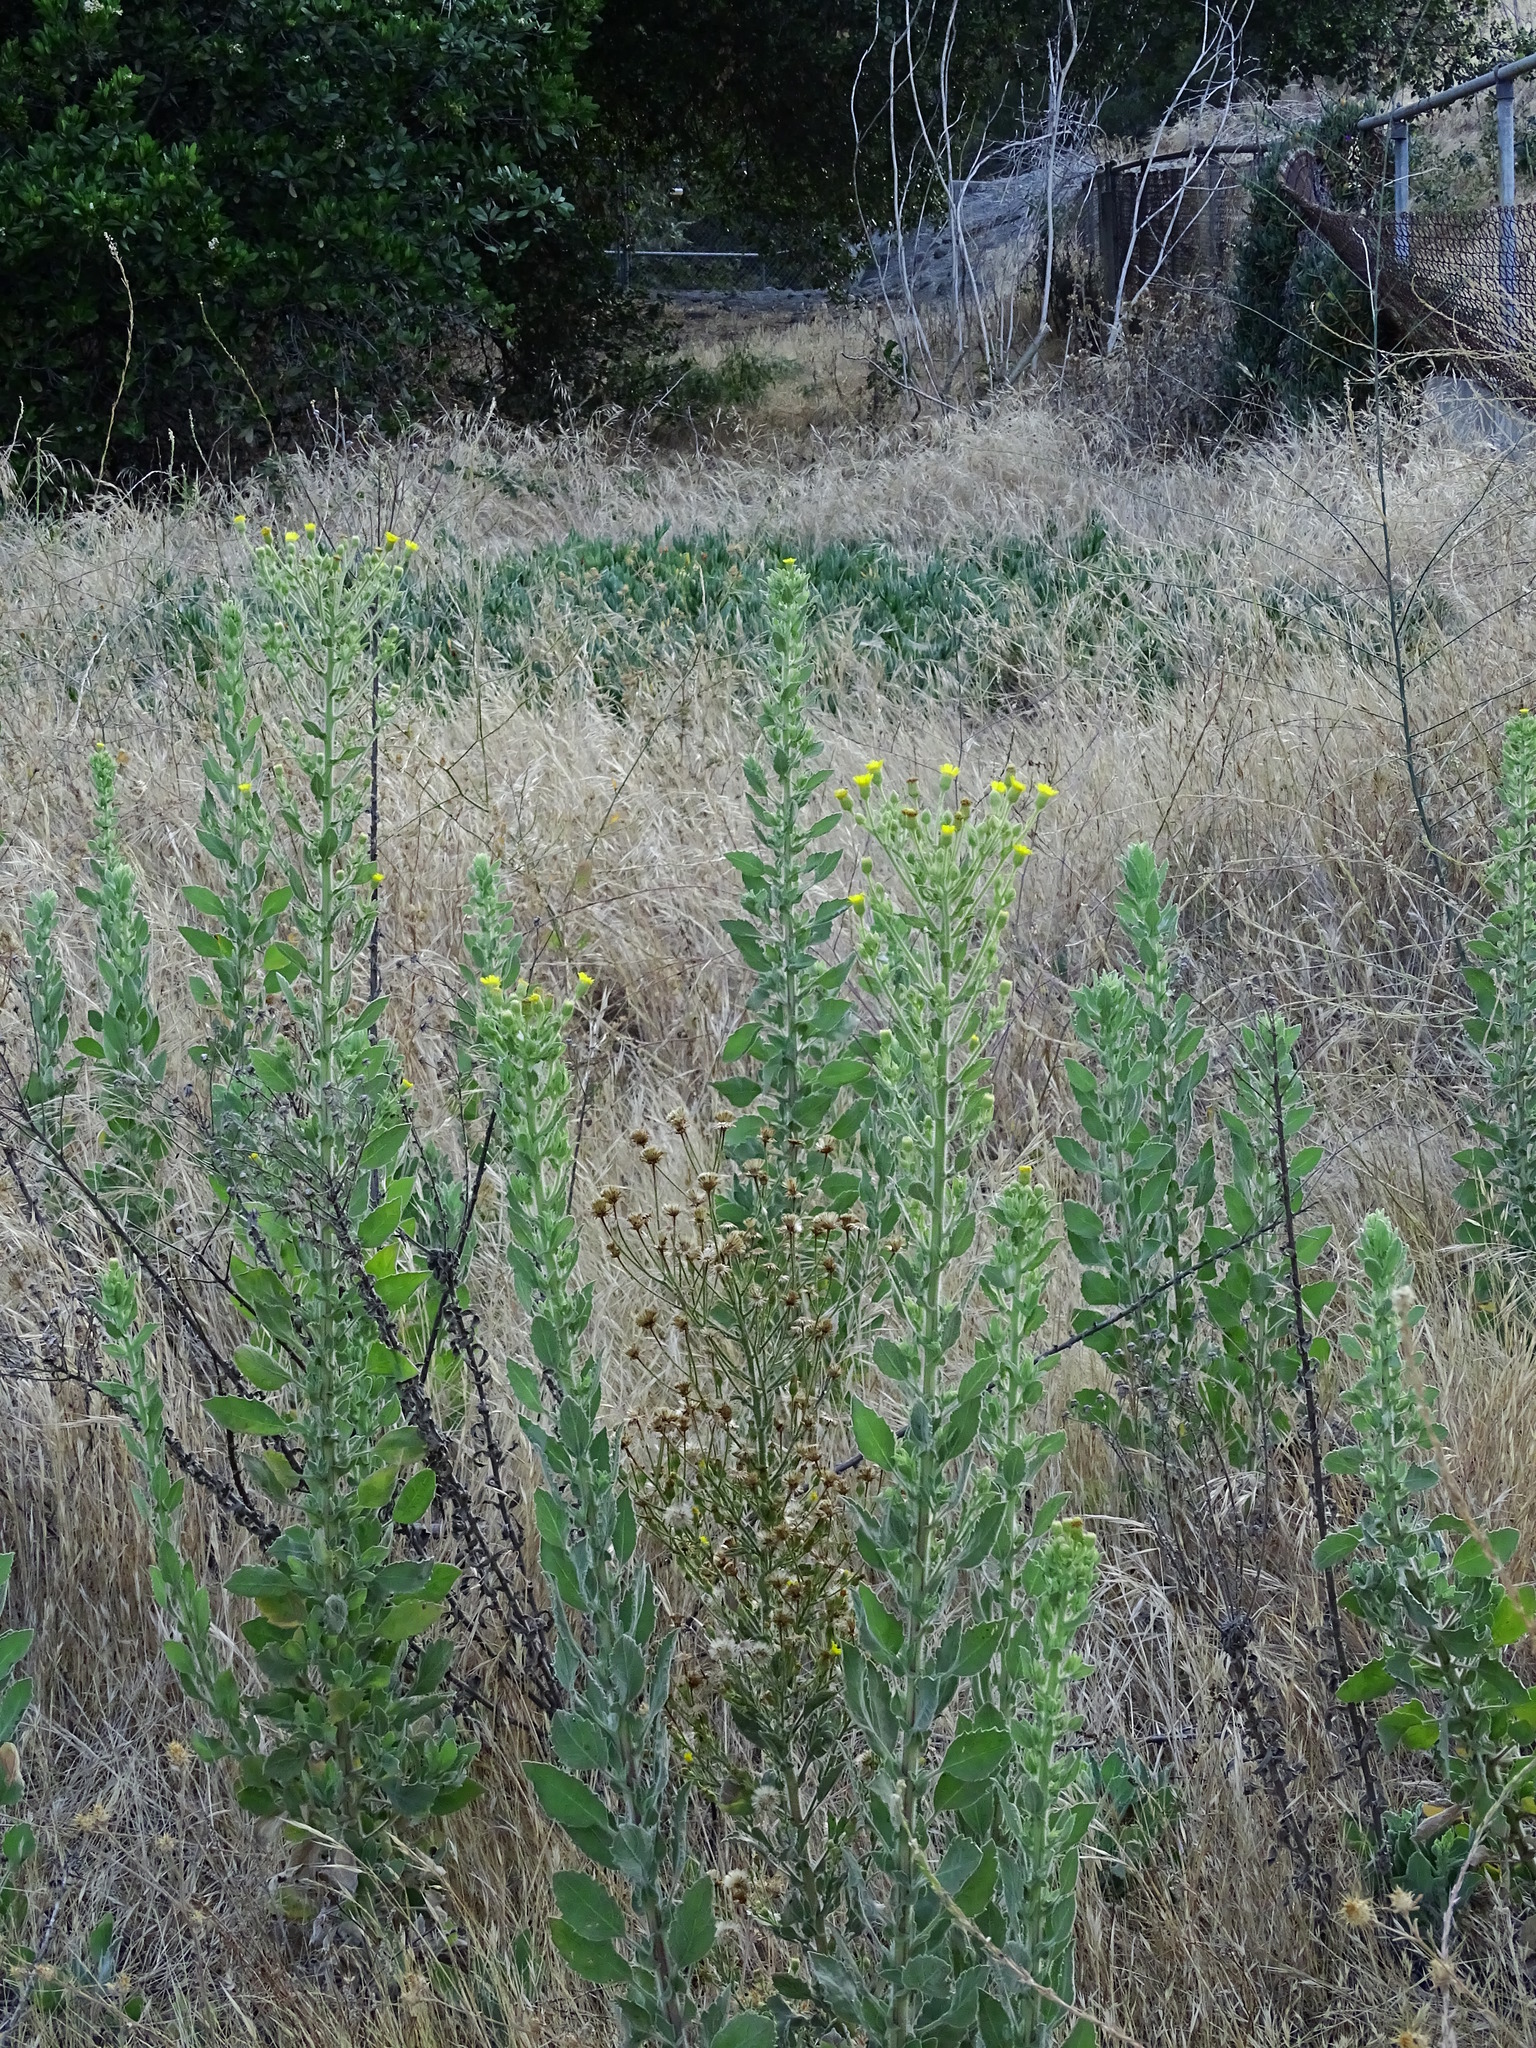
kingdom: Plantae
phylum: Tracheophyta
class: Magnoliopsida
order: Asterales
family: Asteraceae
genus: Heterotheca
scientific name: Heterotheca grandiflora
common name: Telegraphweed
